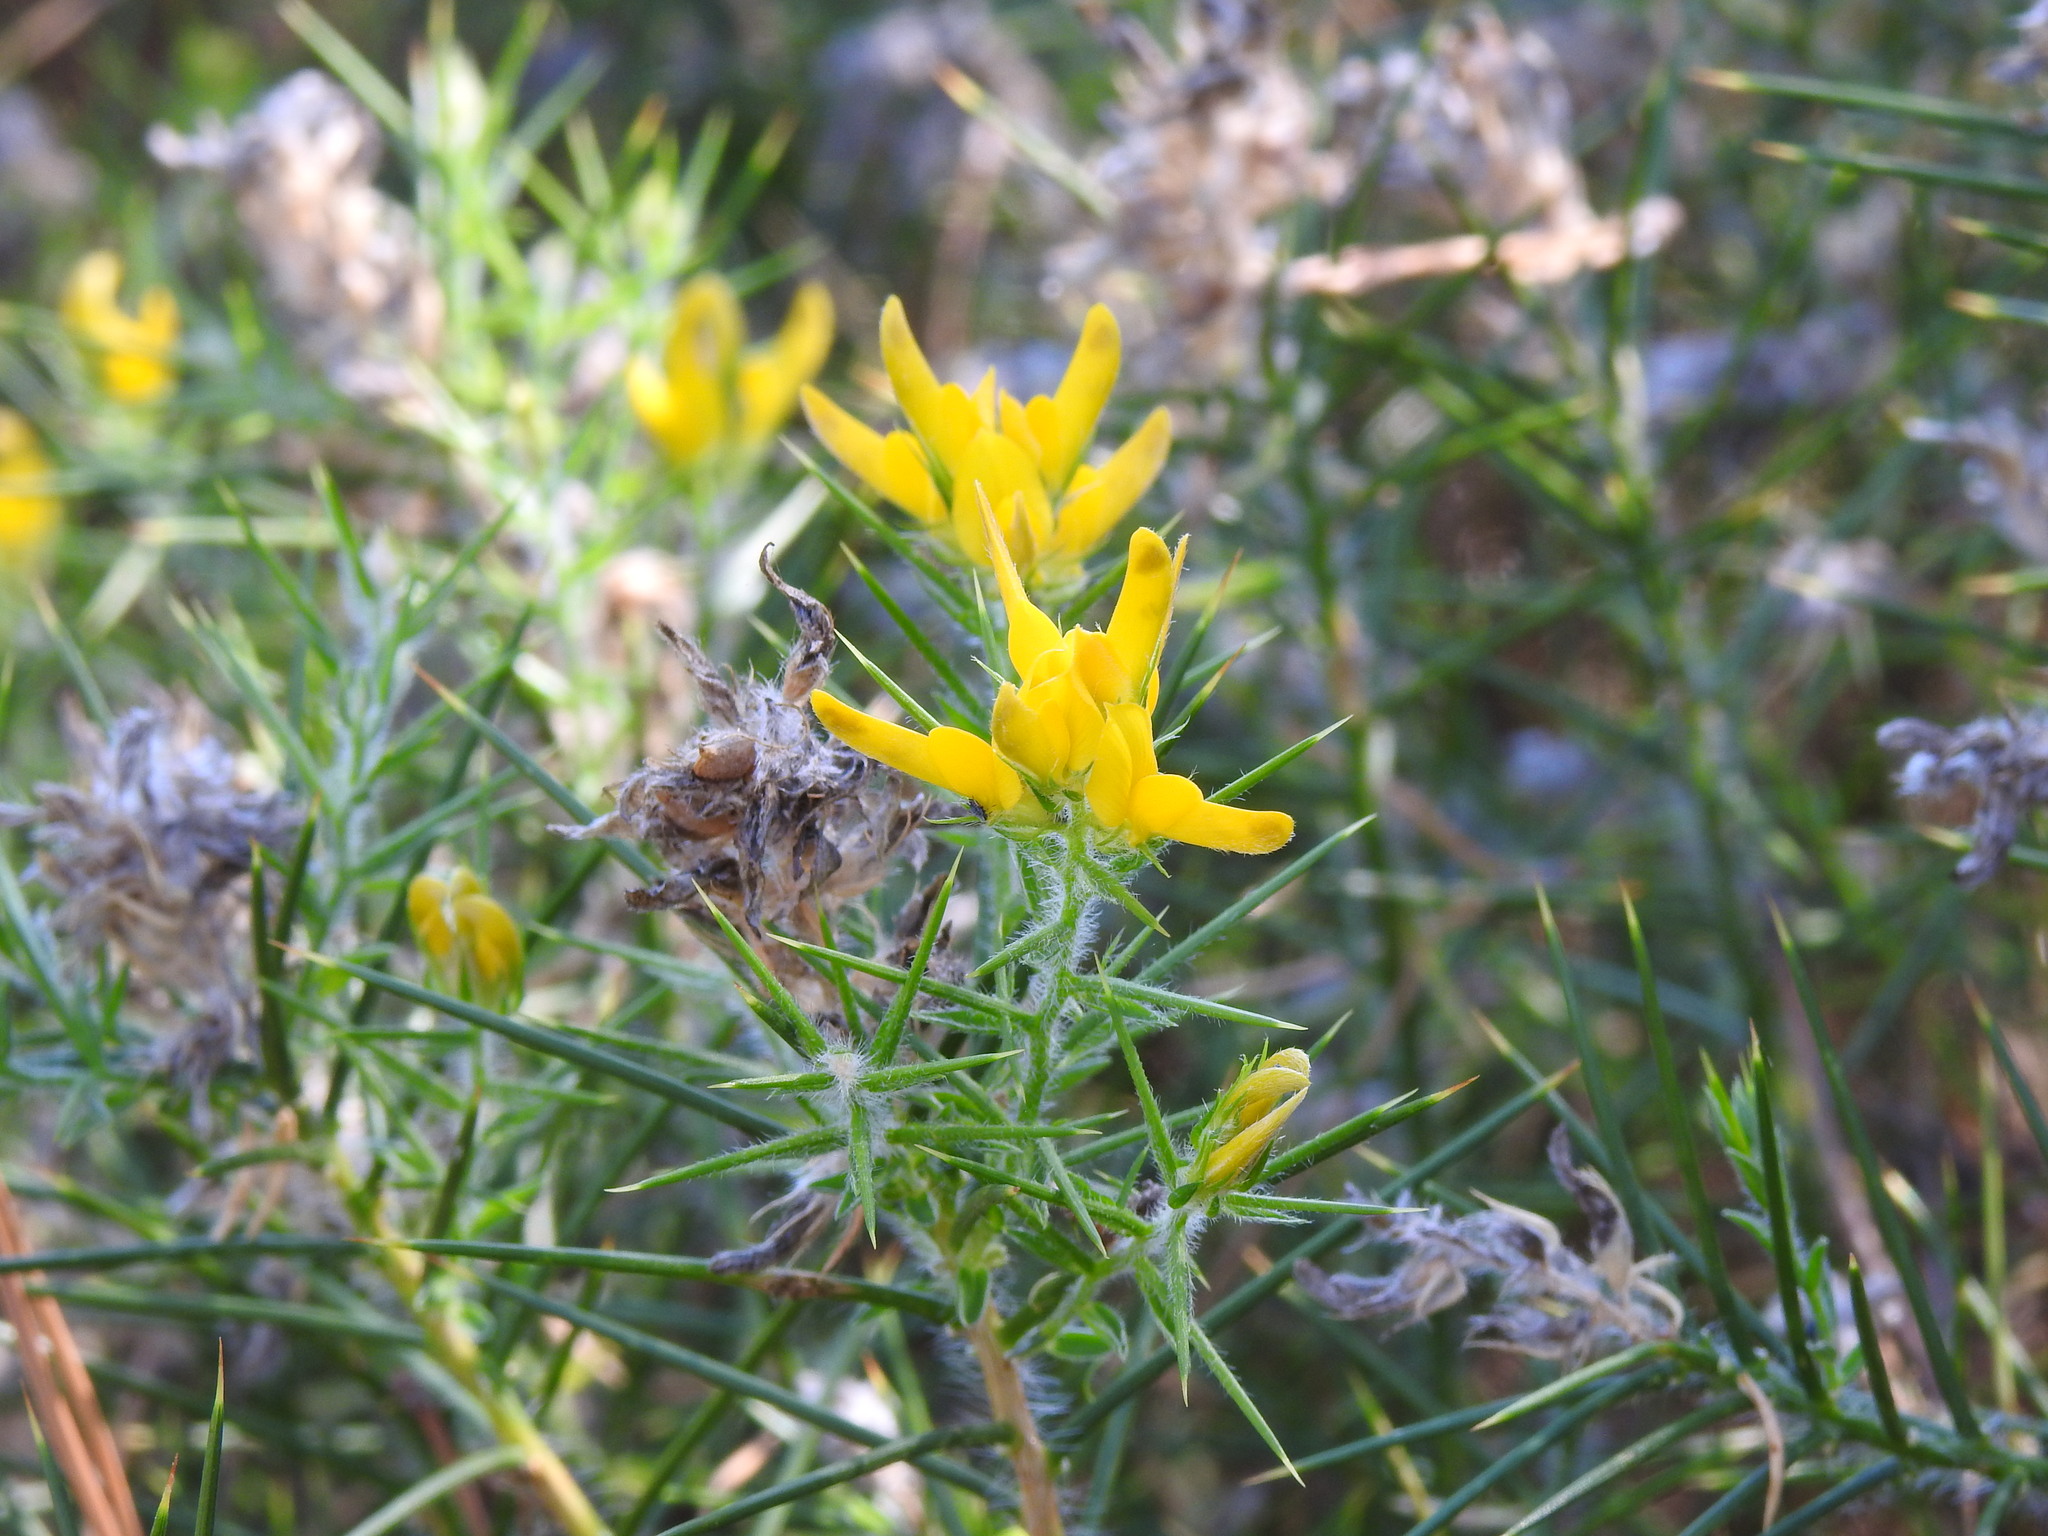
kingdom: Plantae
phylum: Tracheophyta
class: Magnoliopsida
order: Fabales
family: Fabaceae
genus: Genista
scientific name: Genista hirsuta
